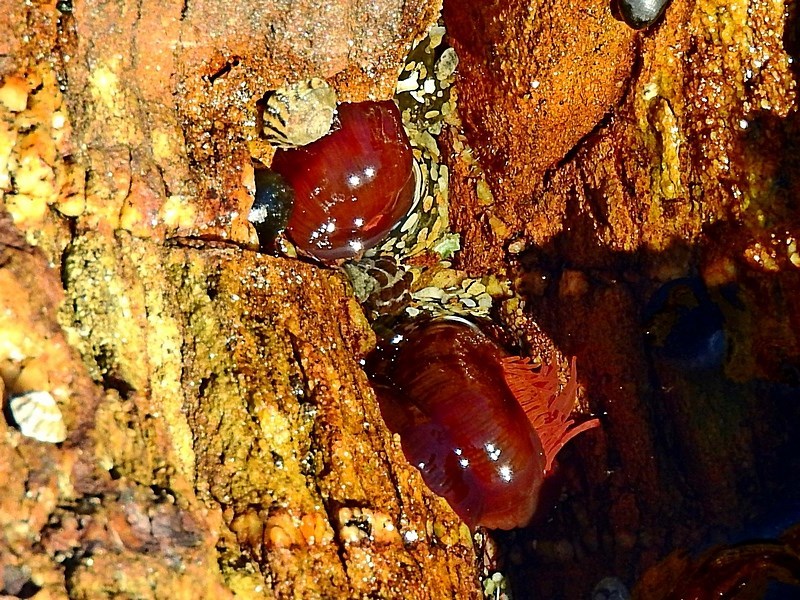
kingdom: Animalia
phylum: Cnidaria
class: Anthozoa
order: Actiniaria
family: Actiniidae
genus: Actinia
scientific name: Actinia tenebrosa
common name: Waratah anemone
